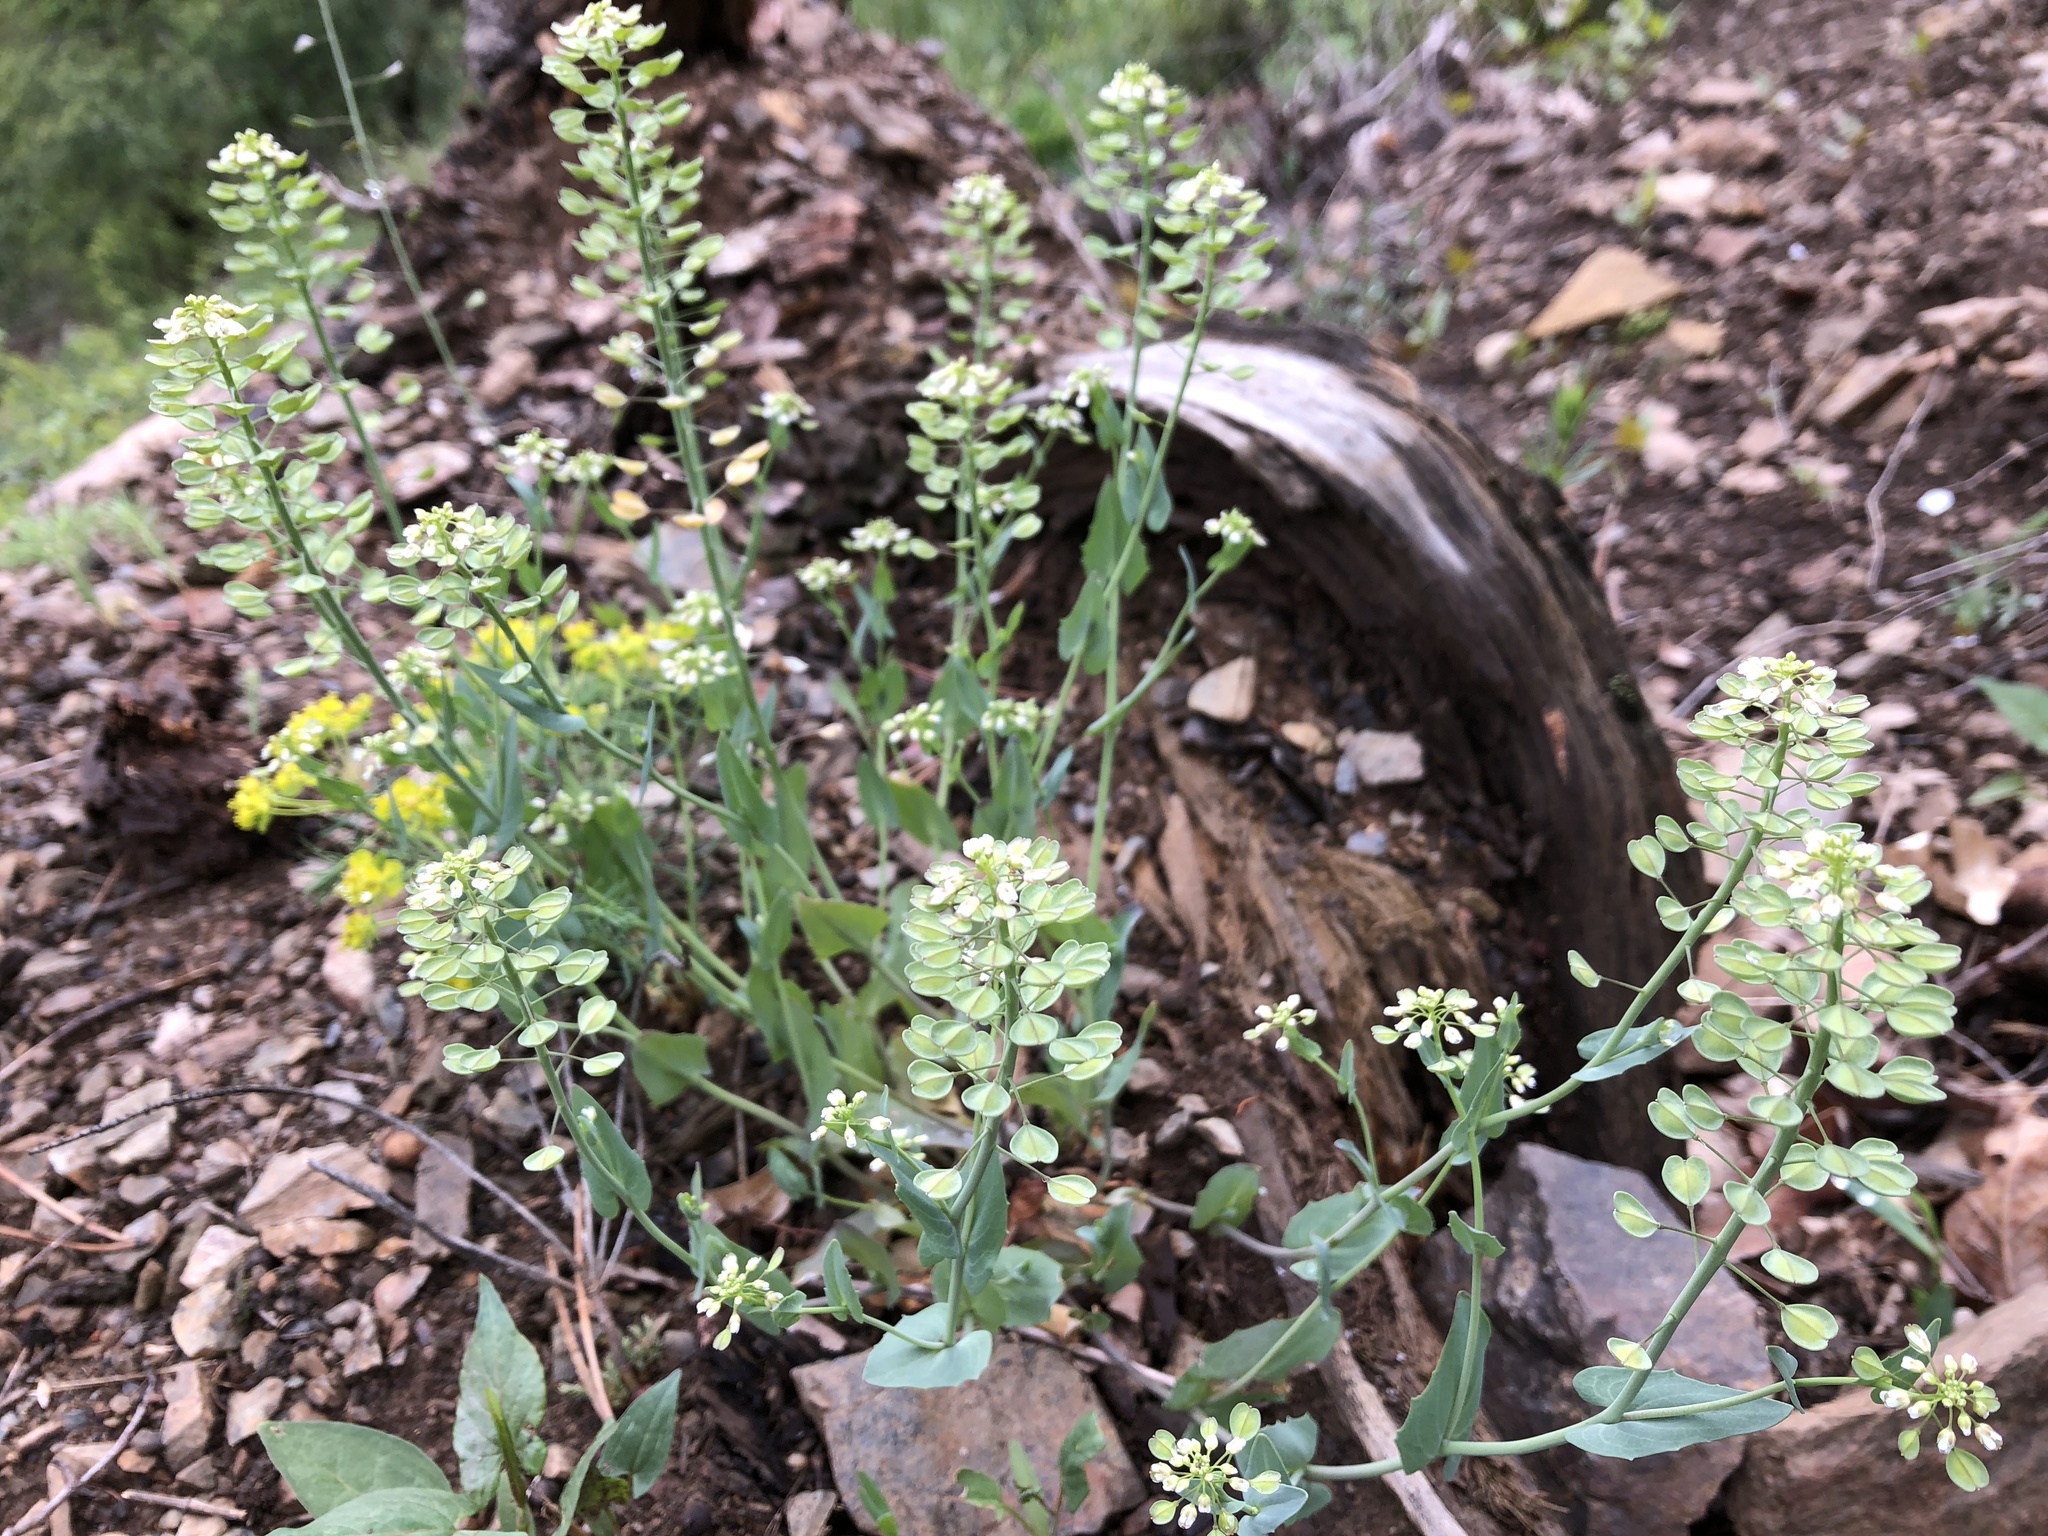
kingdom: Plantae
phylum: Tracheophyta
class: Magnoliopsida
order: Brassicales
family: Brassicaceae
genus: Noccaea
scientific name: Noccaea perfoliata
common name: Perfoliate pennycress
